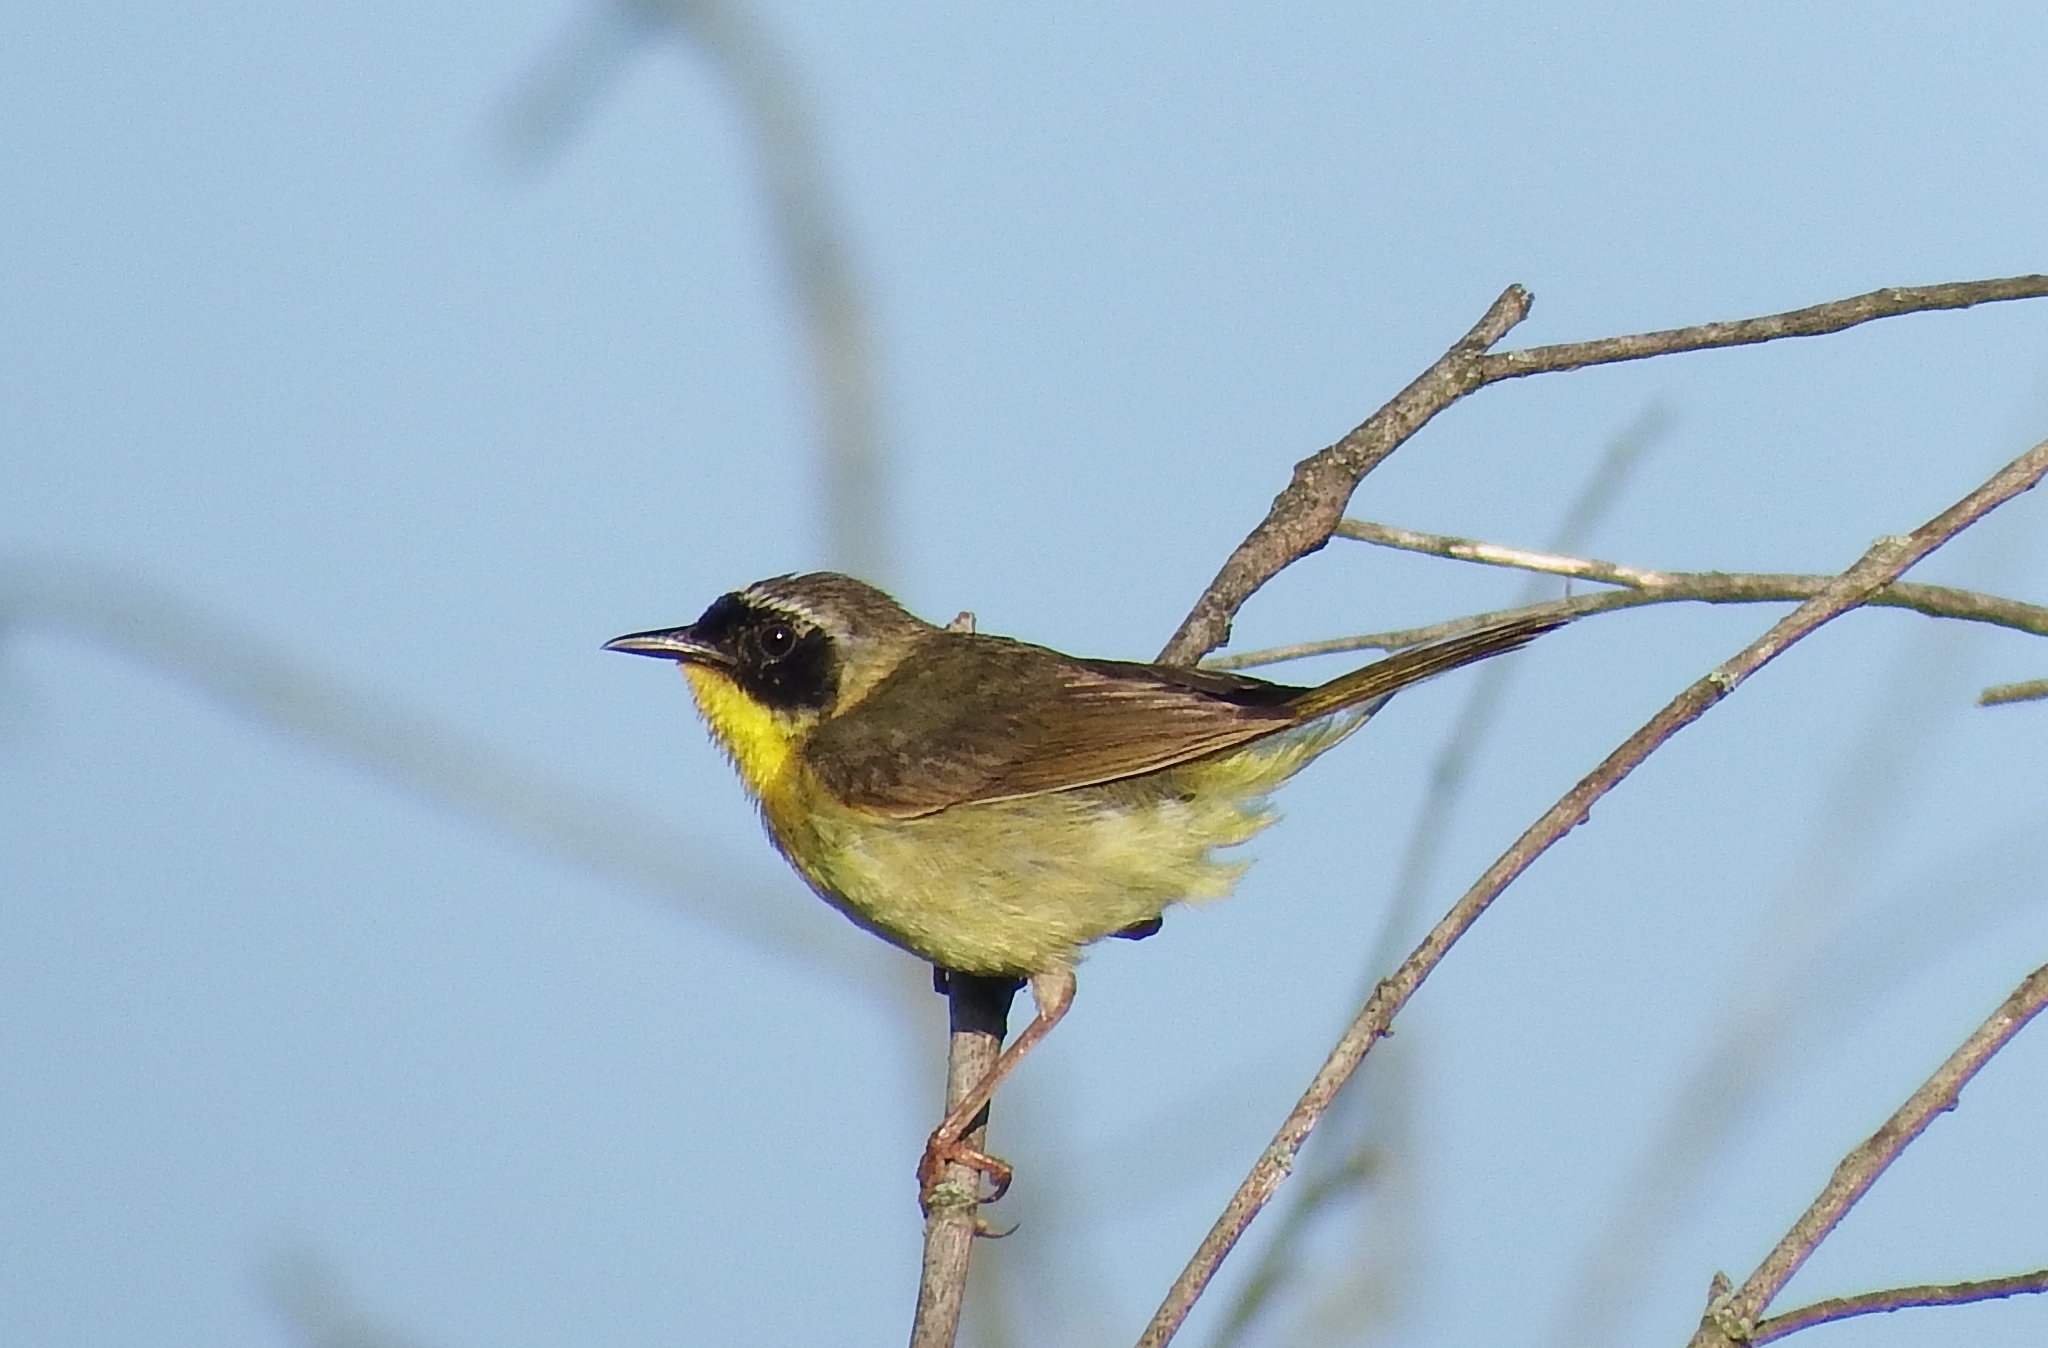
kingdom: Animalia
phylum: Chordata
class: Aves
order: Passeriformes
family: Parulidae
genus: Geothlypis
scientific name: Geothlypis trichas
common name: Common yellowthroat
